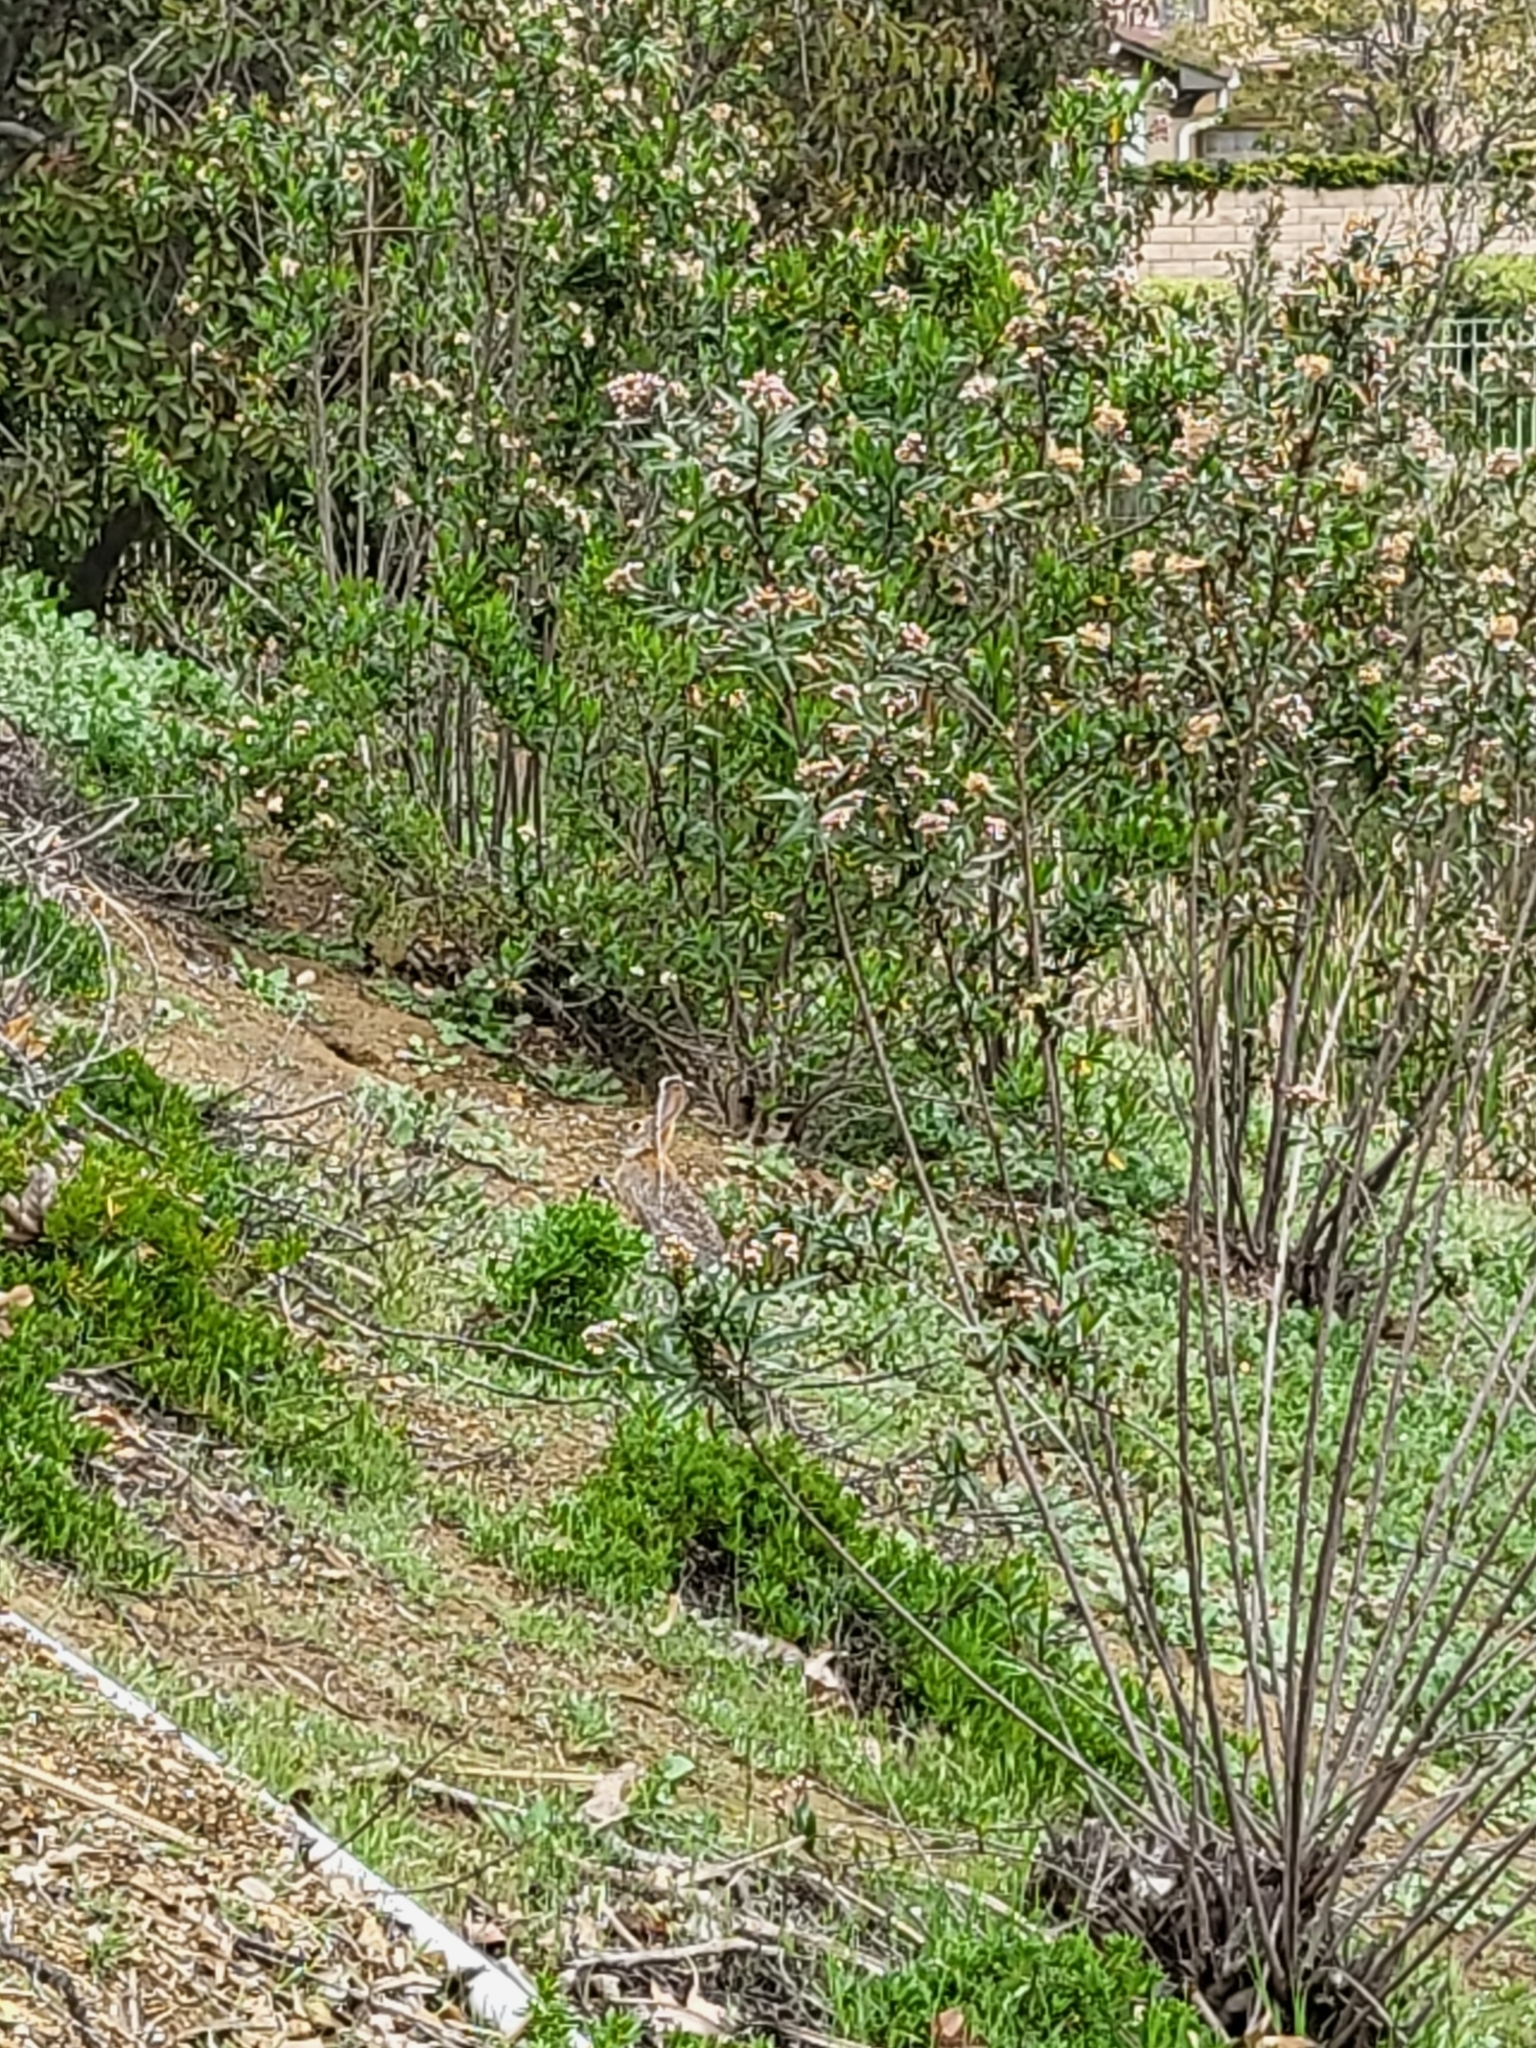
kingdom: Animalia
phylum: Chordata
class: Mammalia
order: Lagomorpha
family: Leporidae
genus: Sylvilagus
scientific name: Sylvilagus audubonii
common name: Desert cottontail
